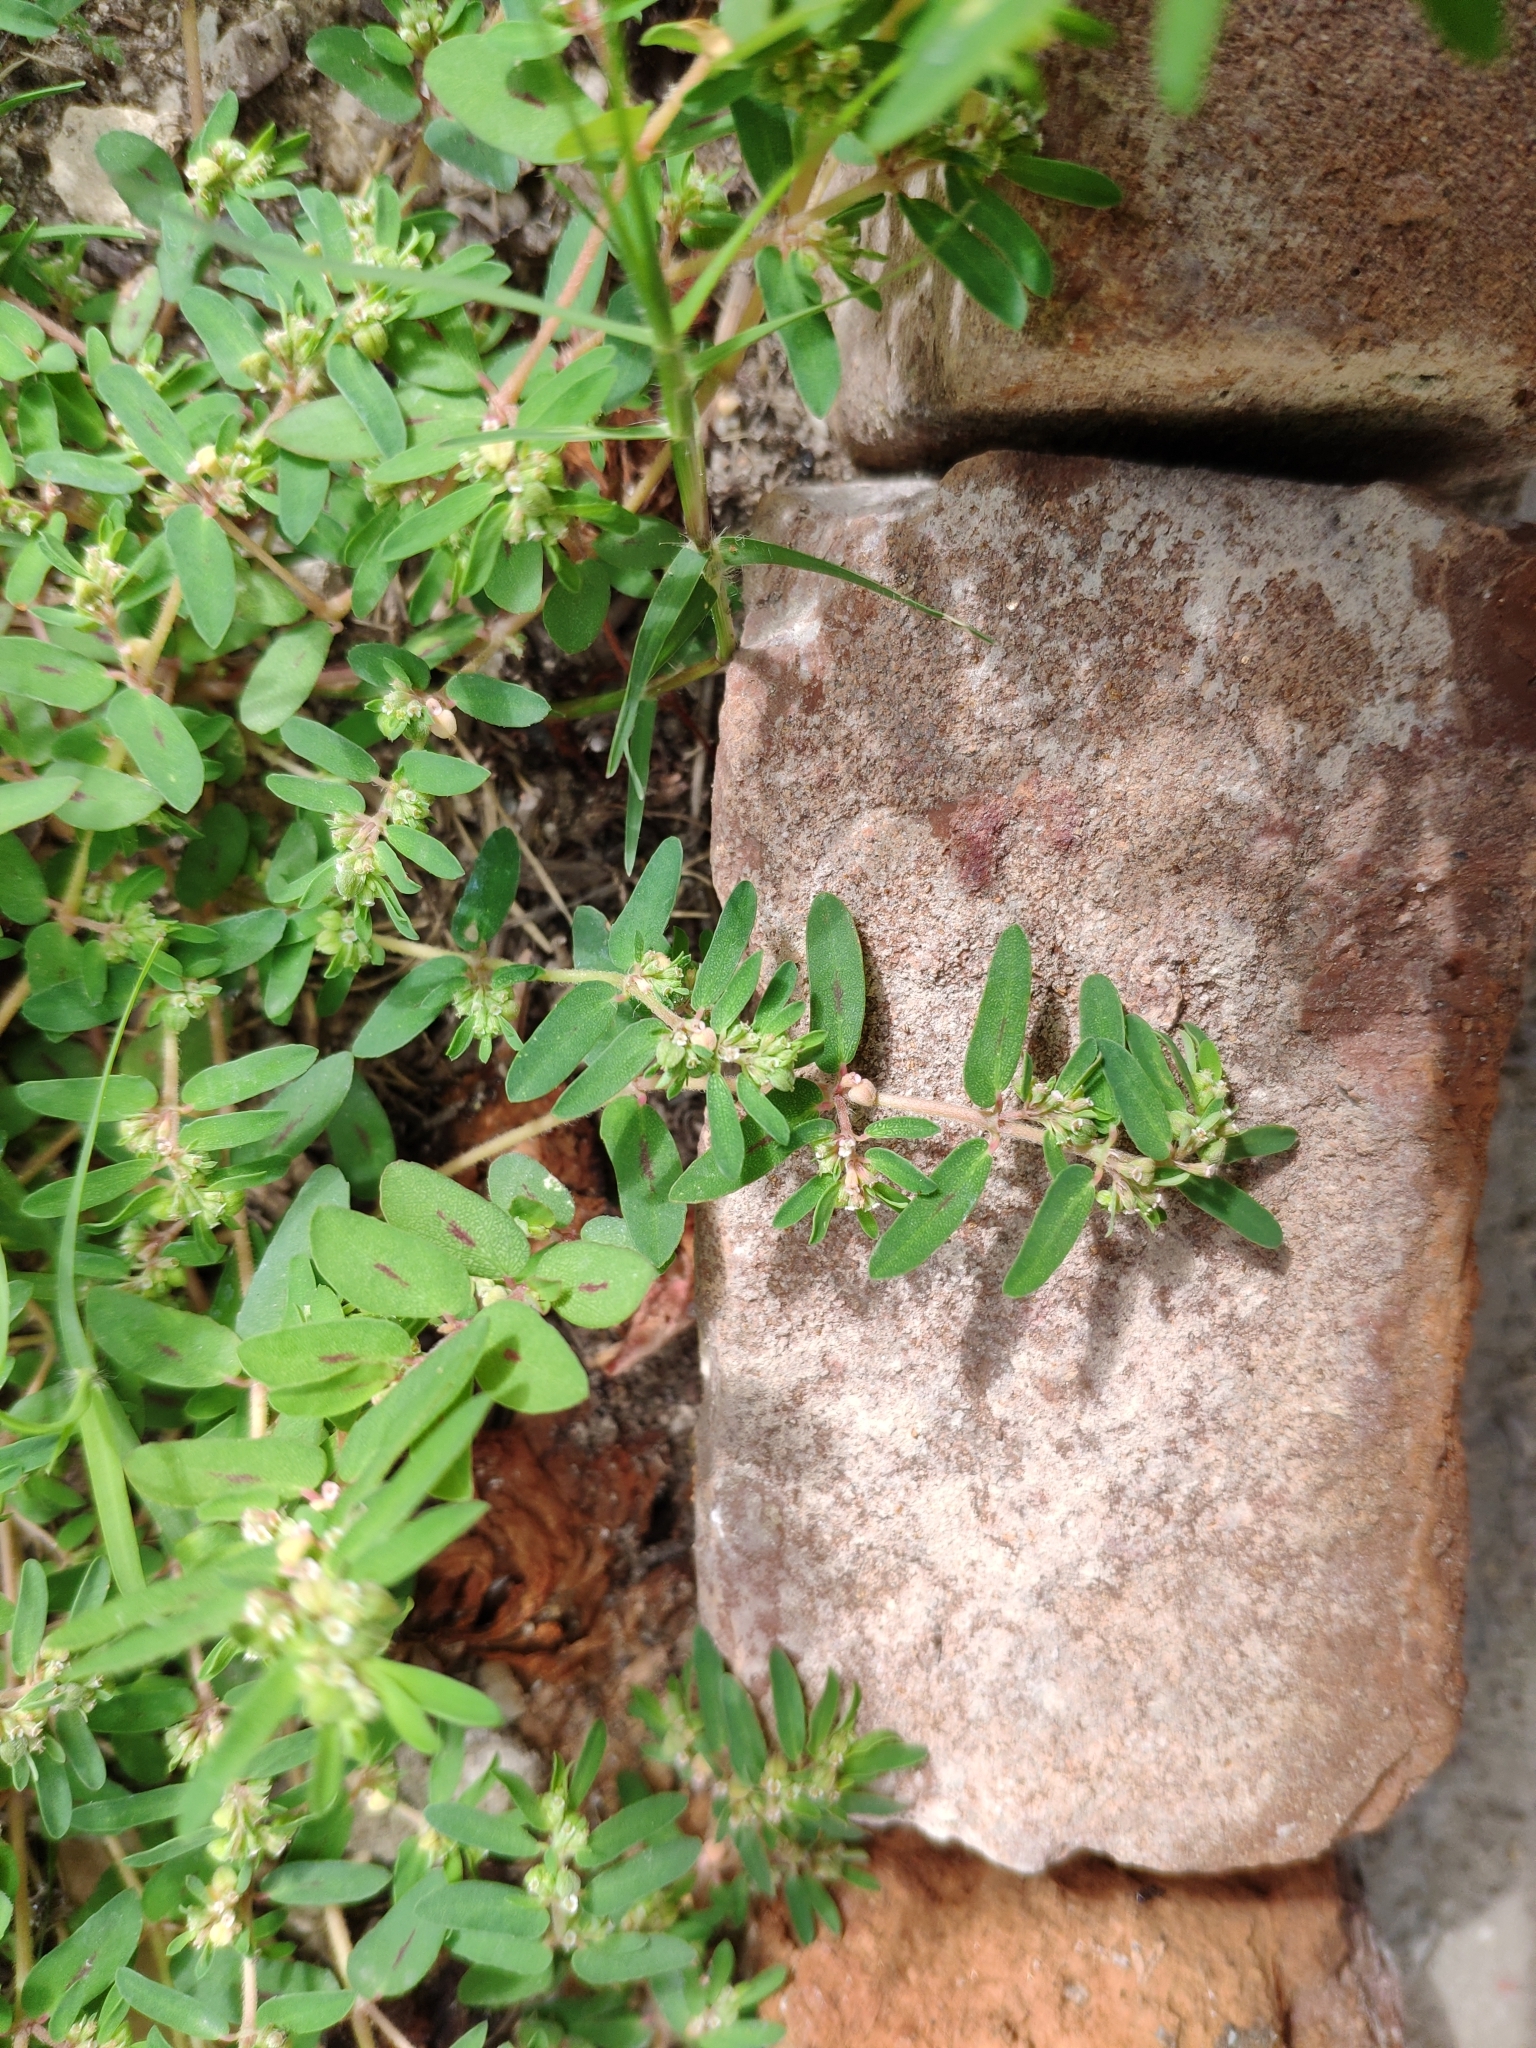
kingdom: Plantae
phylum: Tracheophyta
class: Magnoliopsida
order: Malpighiales
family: Euphorbiaceae
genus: Euphorbia
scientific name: Euphorbia maculata
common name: Spotted spurge
